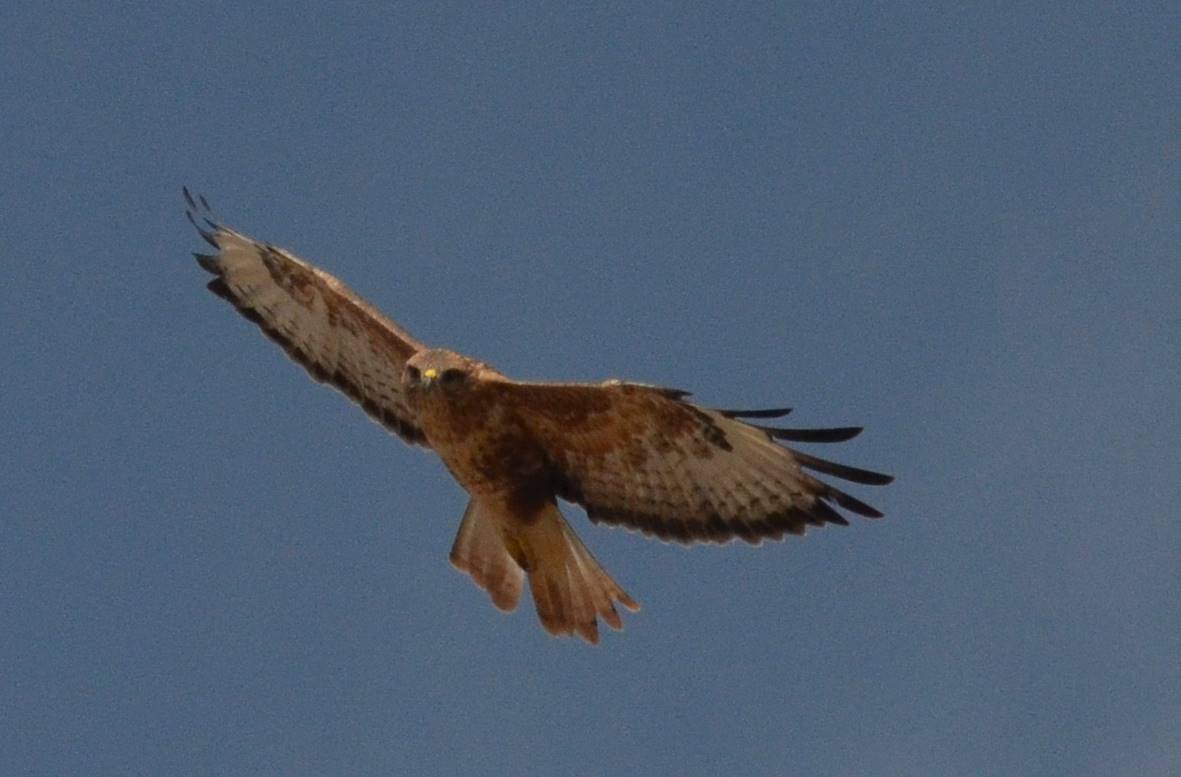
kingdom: Animalia
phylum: Chordata
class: Aves
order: Accipitriformes
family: Accipitridae
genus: Buteo
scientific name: Buteo rufinus
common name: Long-legged buzzard
